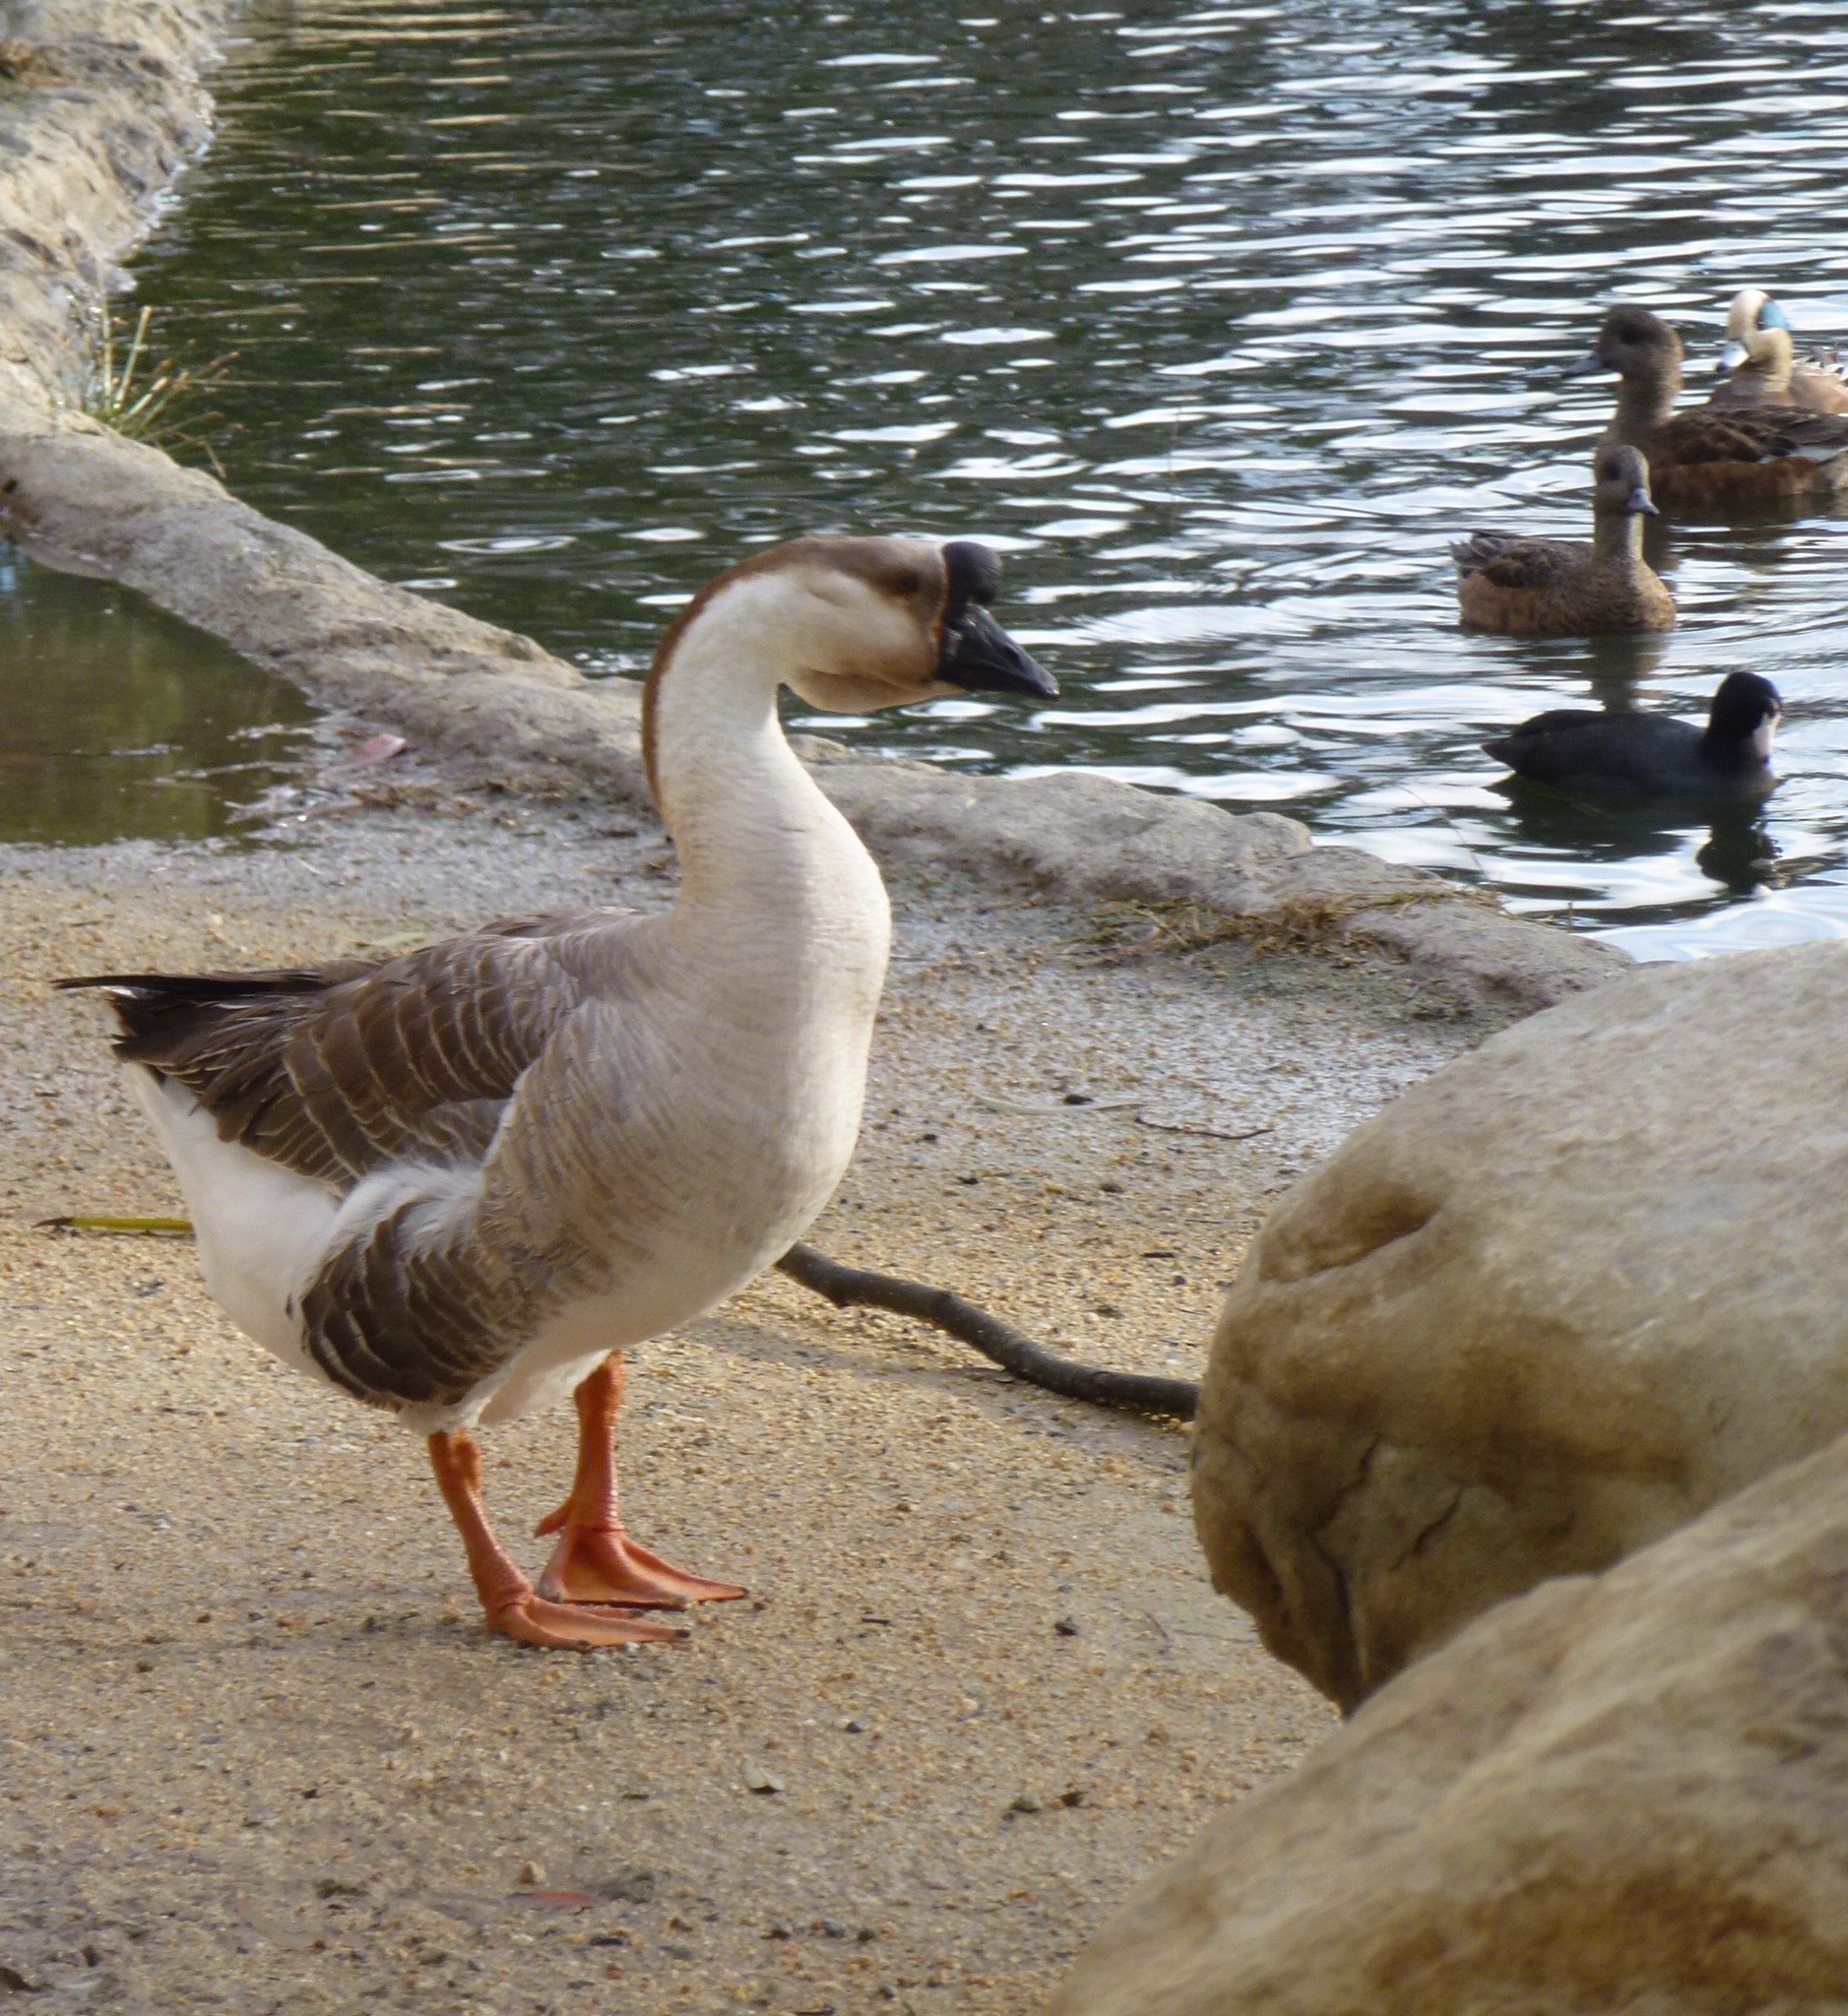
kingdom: Animalia
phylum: Chordata
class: Aves
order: Anseriformes
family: Anatidae
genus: Anser
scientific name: Anser cygnoides
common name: Swan goose
